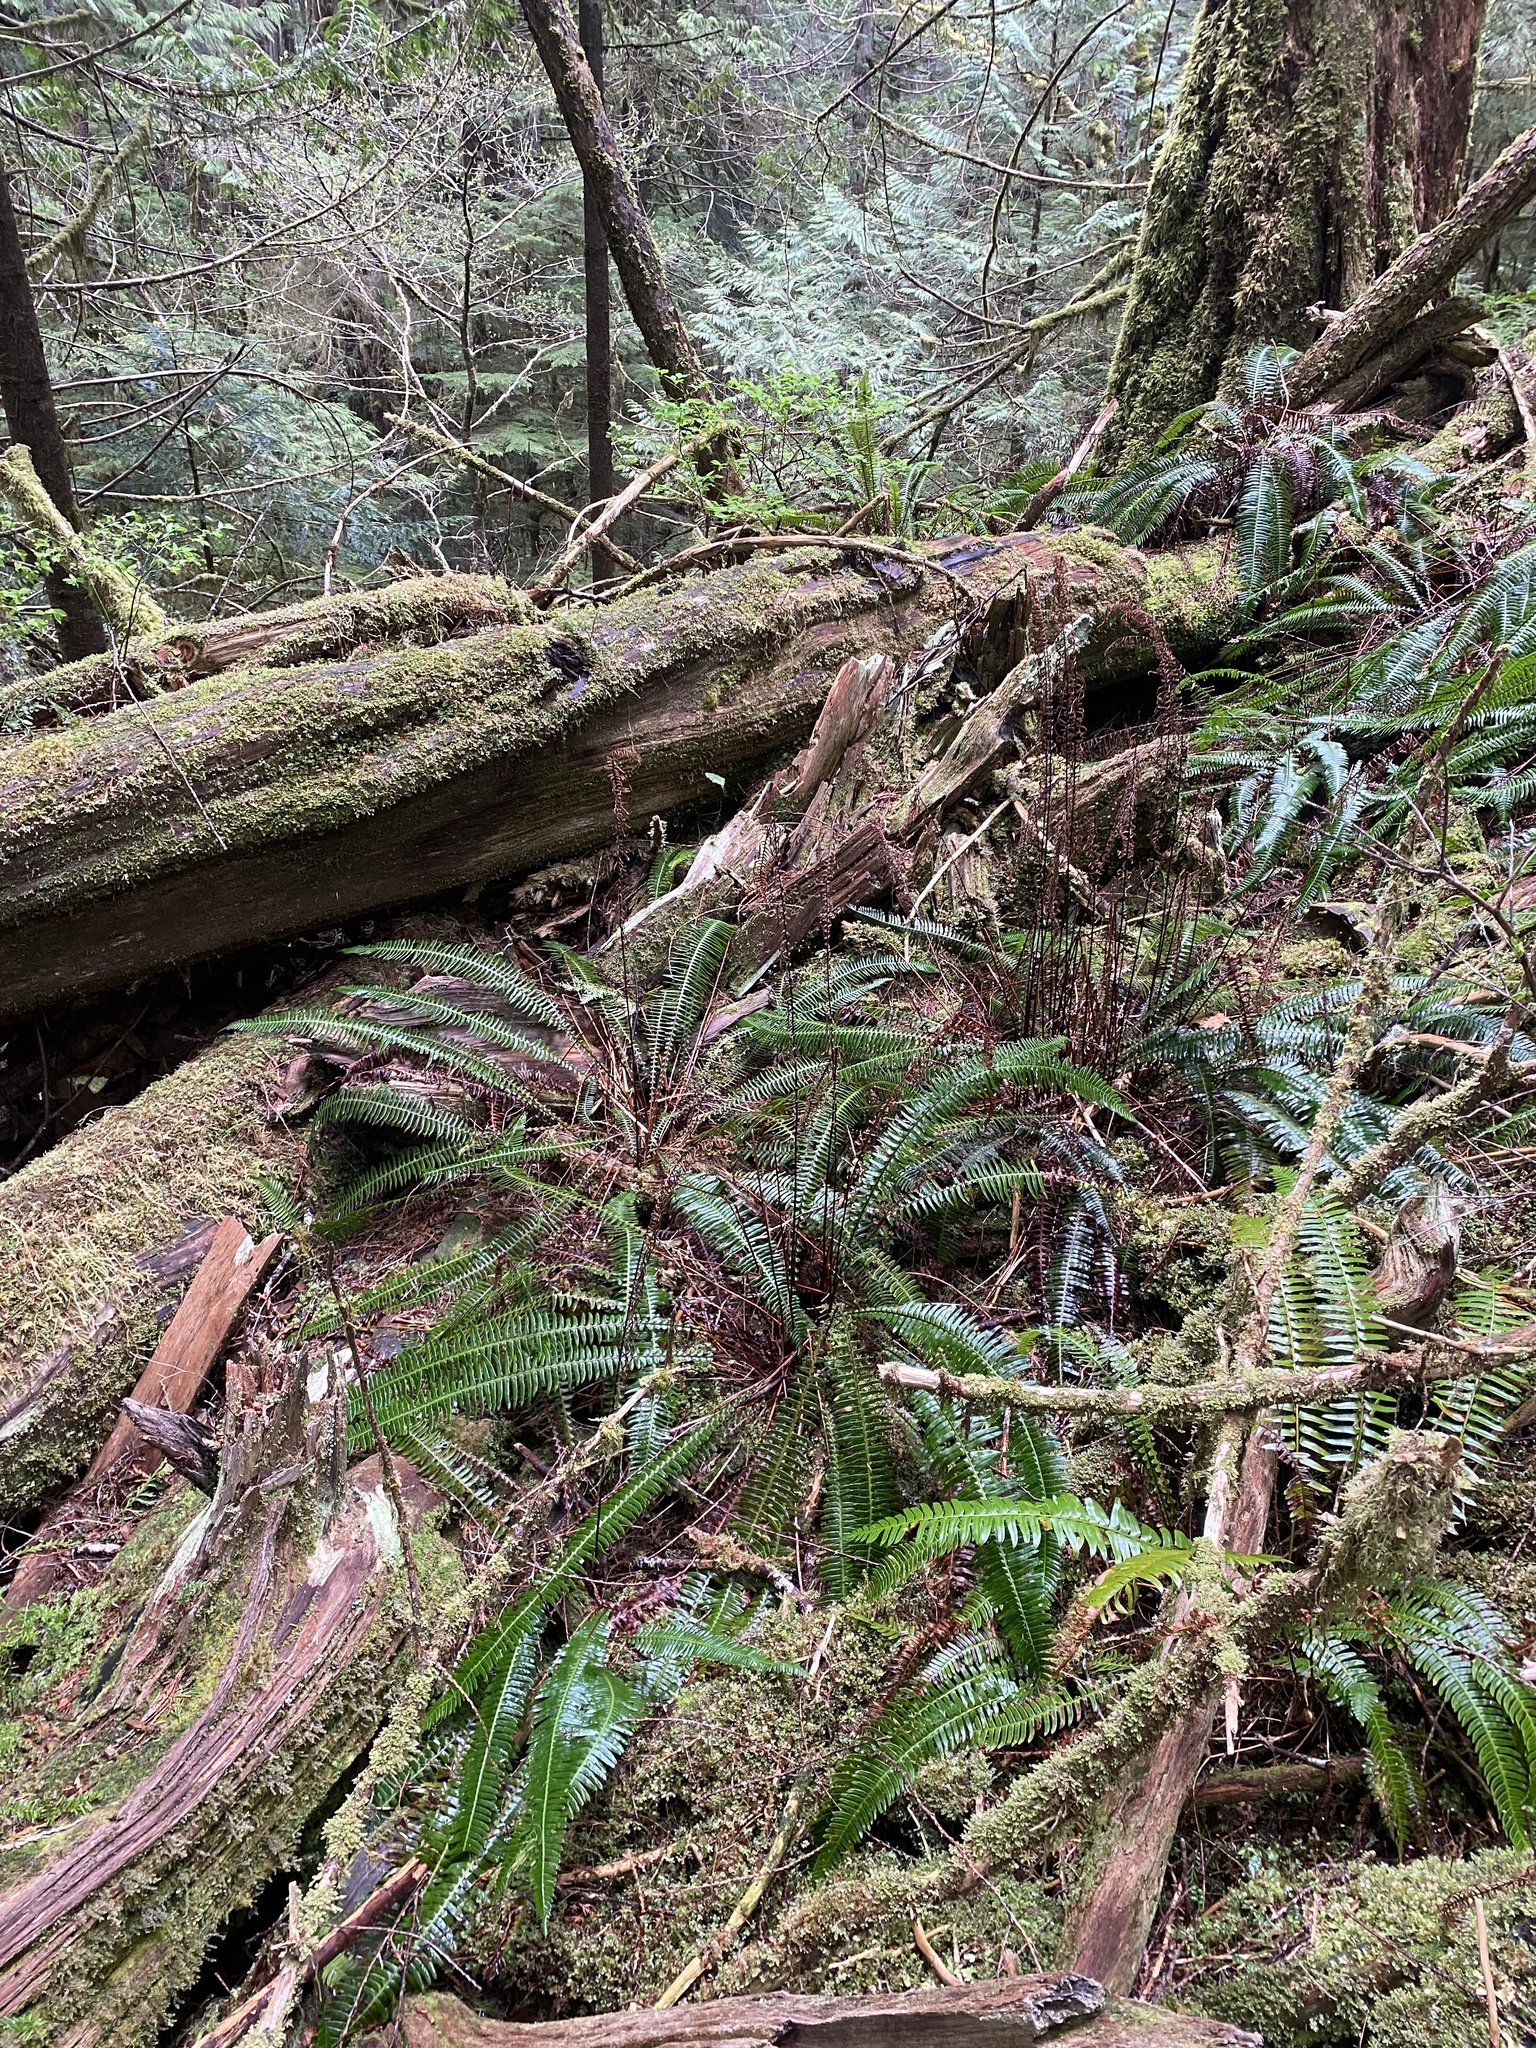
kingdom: Plantae
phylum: Tracheophyta
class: Polypodiopsida
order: Polypodiales
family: Blechnaceae
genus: Struthiopteris
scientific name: Struthiopteris spicant
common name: Deer fern
